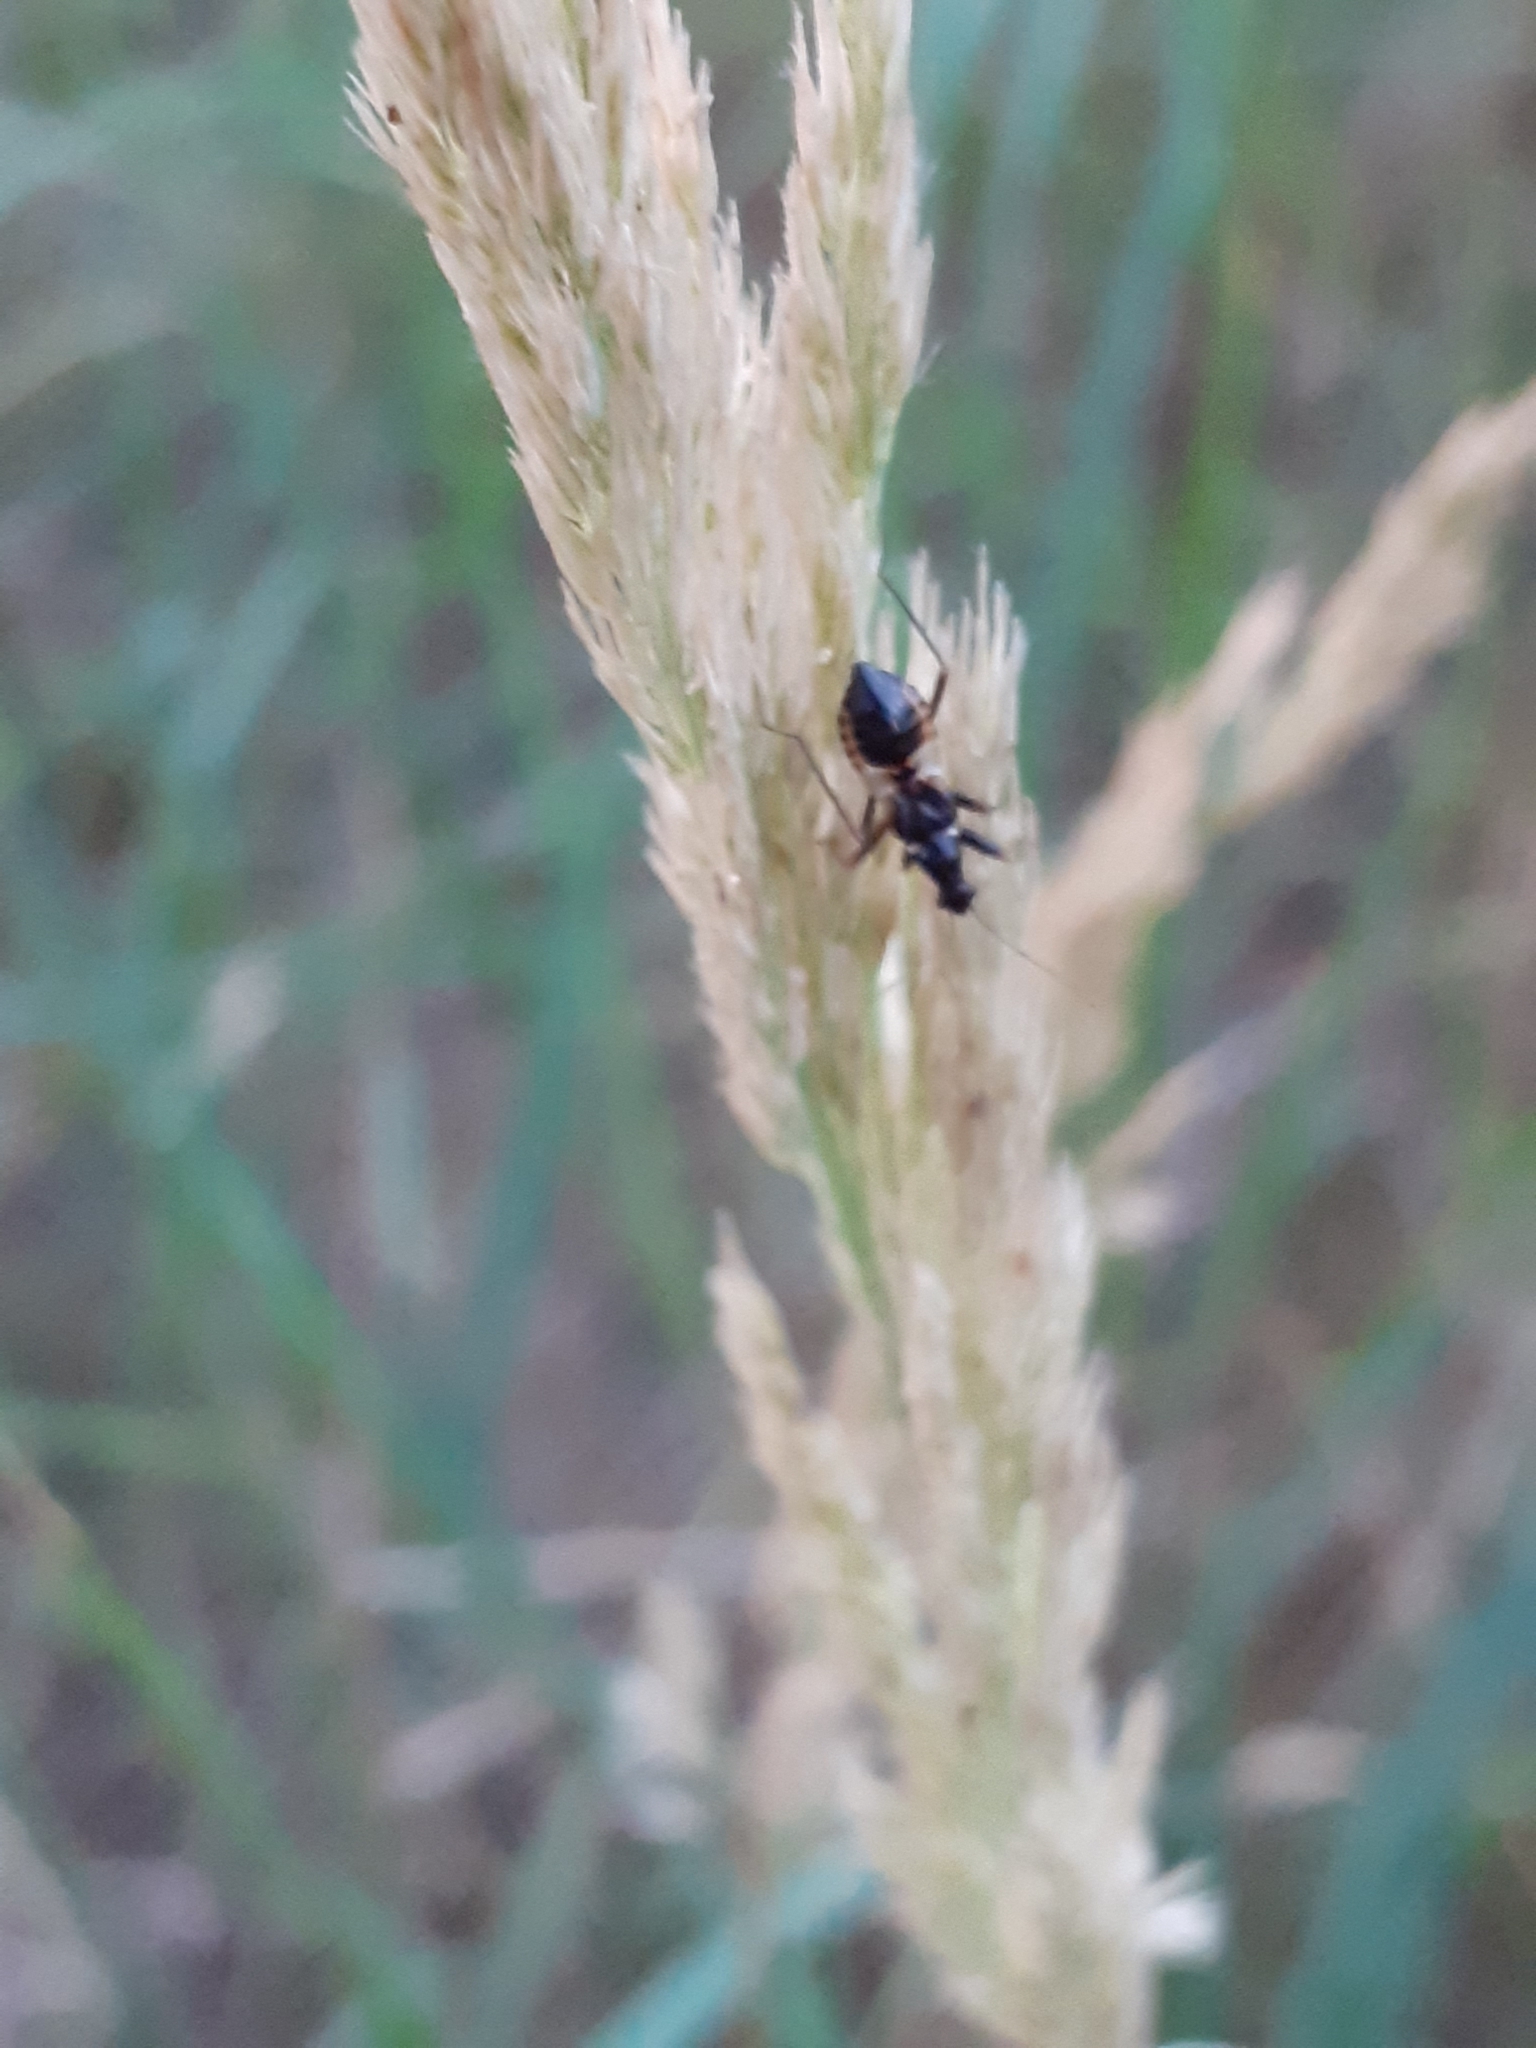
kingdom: Animalia
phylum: Arthropoda
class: Insecta
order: Hemiptera
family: Nabidae
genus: Himacerus
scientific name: Himacerus mirmicoides
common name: Ant damsel bug
